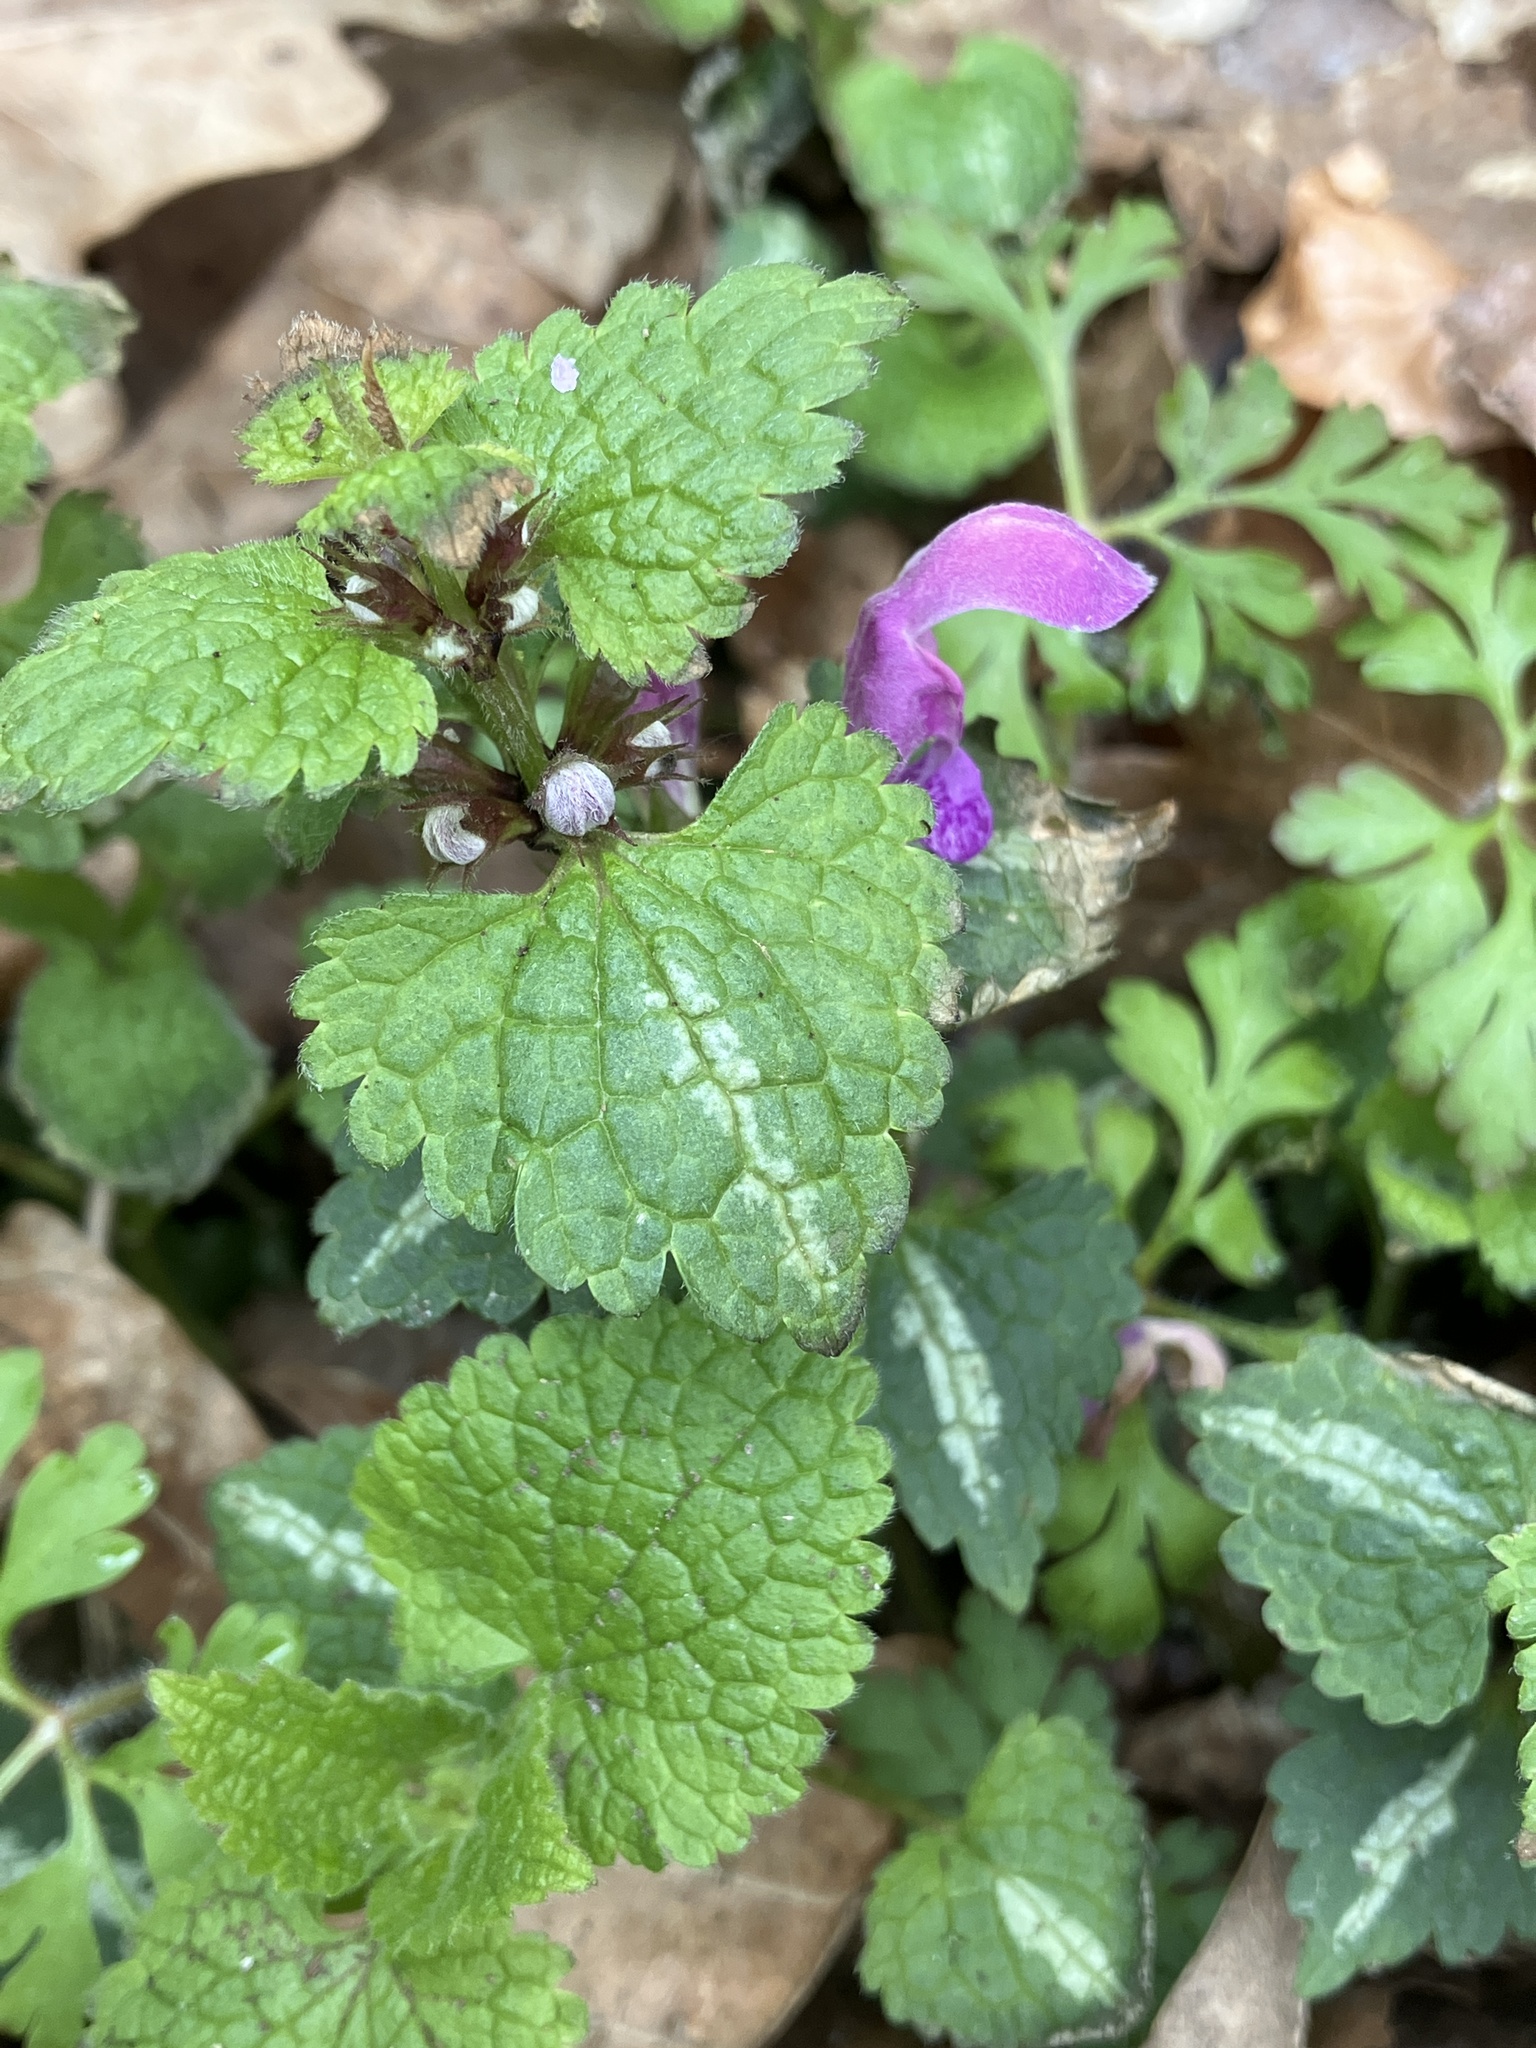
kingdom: Plantae
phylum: Tracheophyta
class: Magnoliopsida
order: Lamiales
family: Lamiaceae
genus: Lamium
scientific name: Lamium maculatum
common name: Spotted dead-nettle
